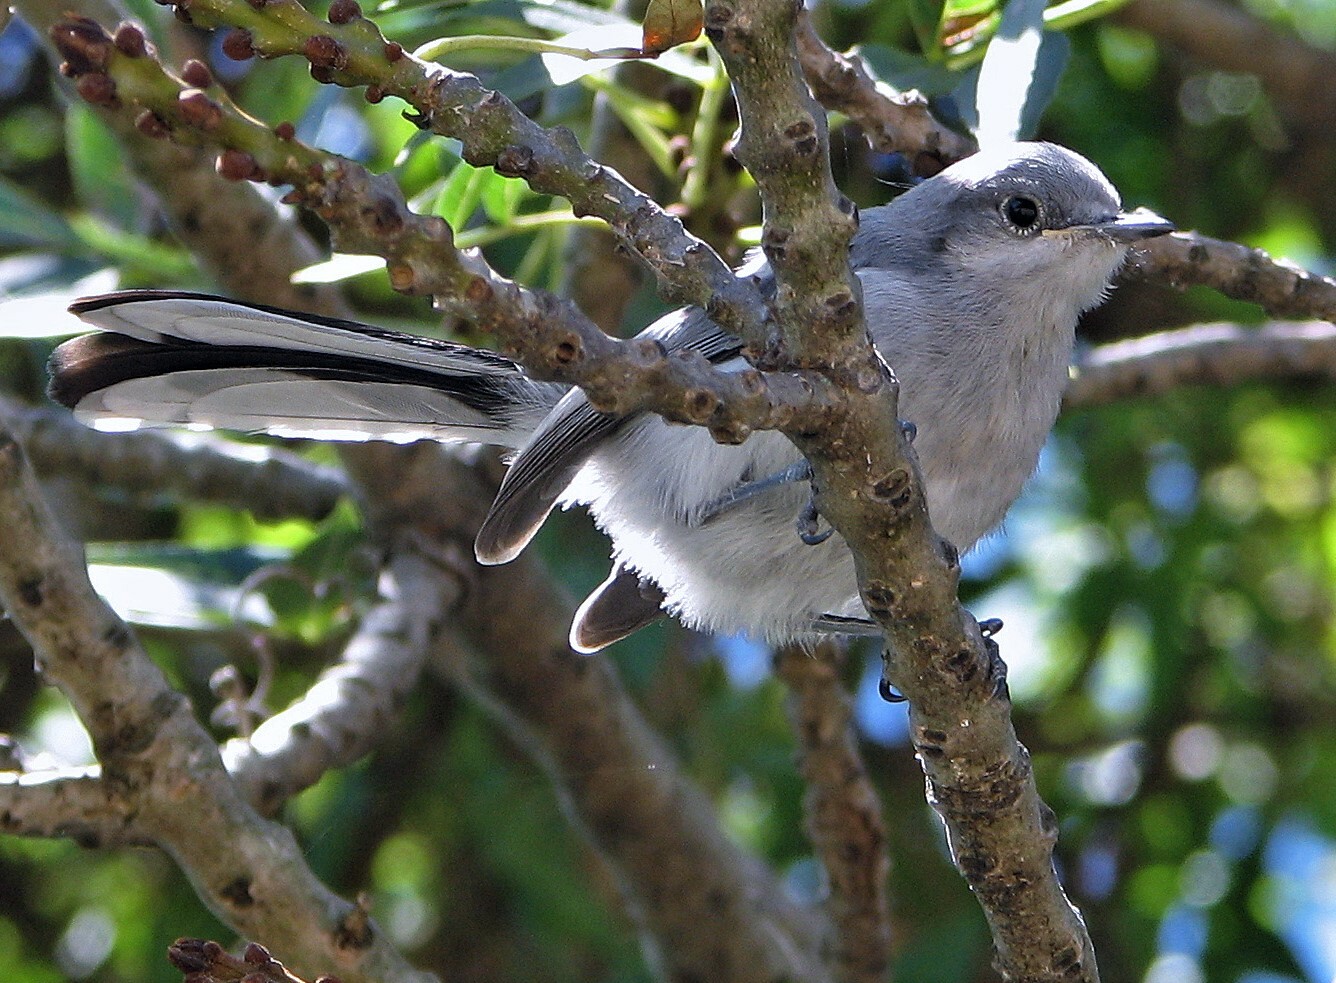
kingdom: Animalia
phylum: Chordata
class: Aves
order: Passeriformes
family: Polioptilidae
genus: Polioptila
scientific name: Polioptila dumicola
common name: Masked gnatcatcher
